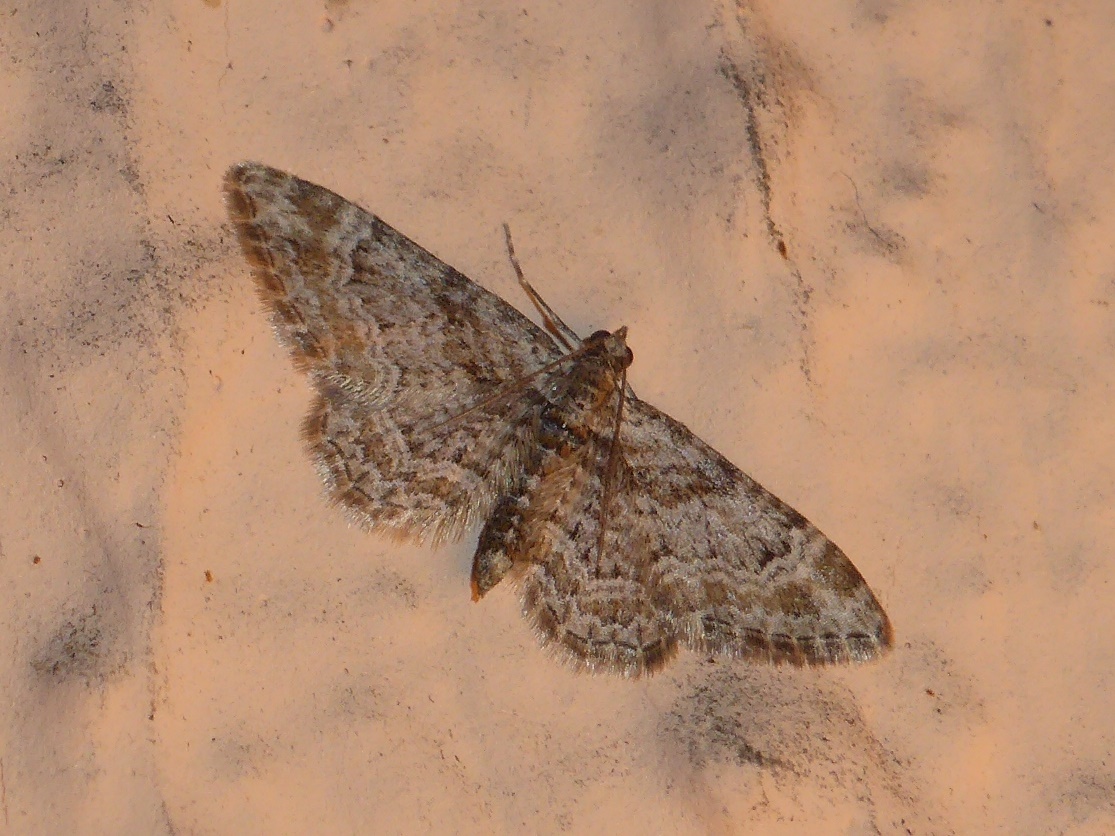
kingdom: Animalia
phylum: Arthropoda
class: Insecta
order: Lepidoptera
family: Geometridae
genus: Gymnoscelis
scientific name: Gymnoscelis rufifasciata
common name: Double-striped pug
